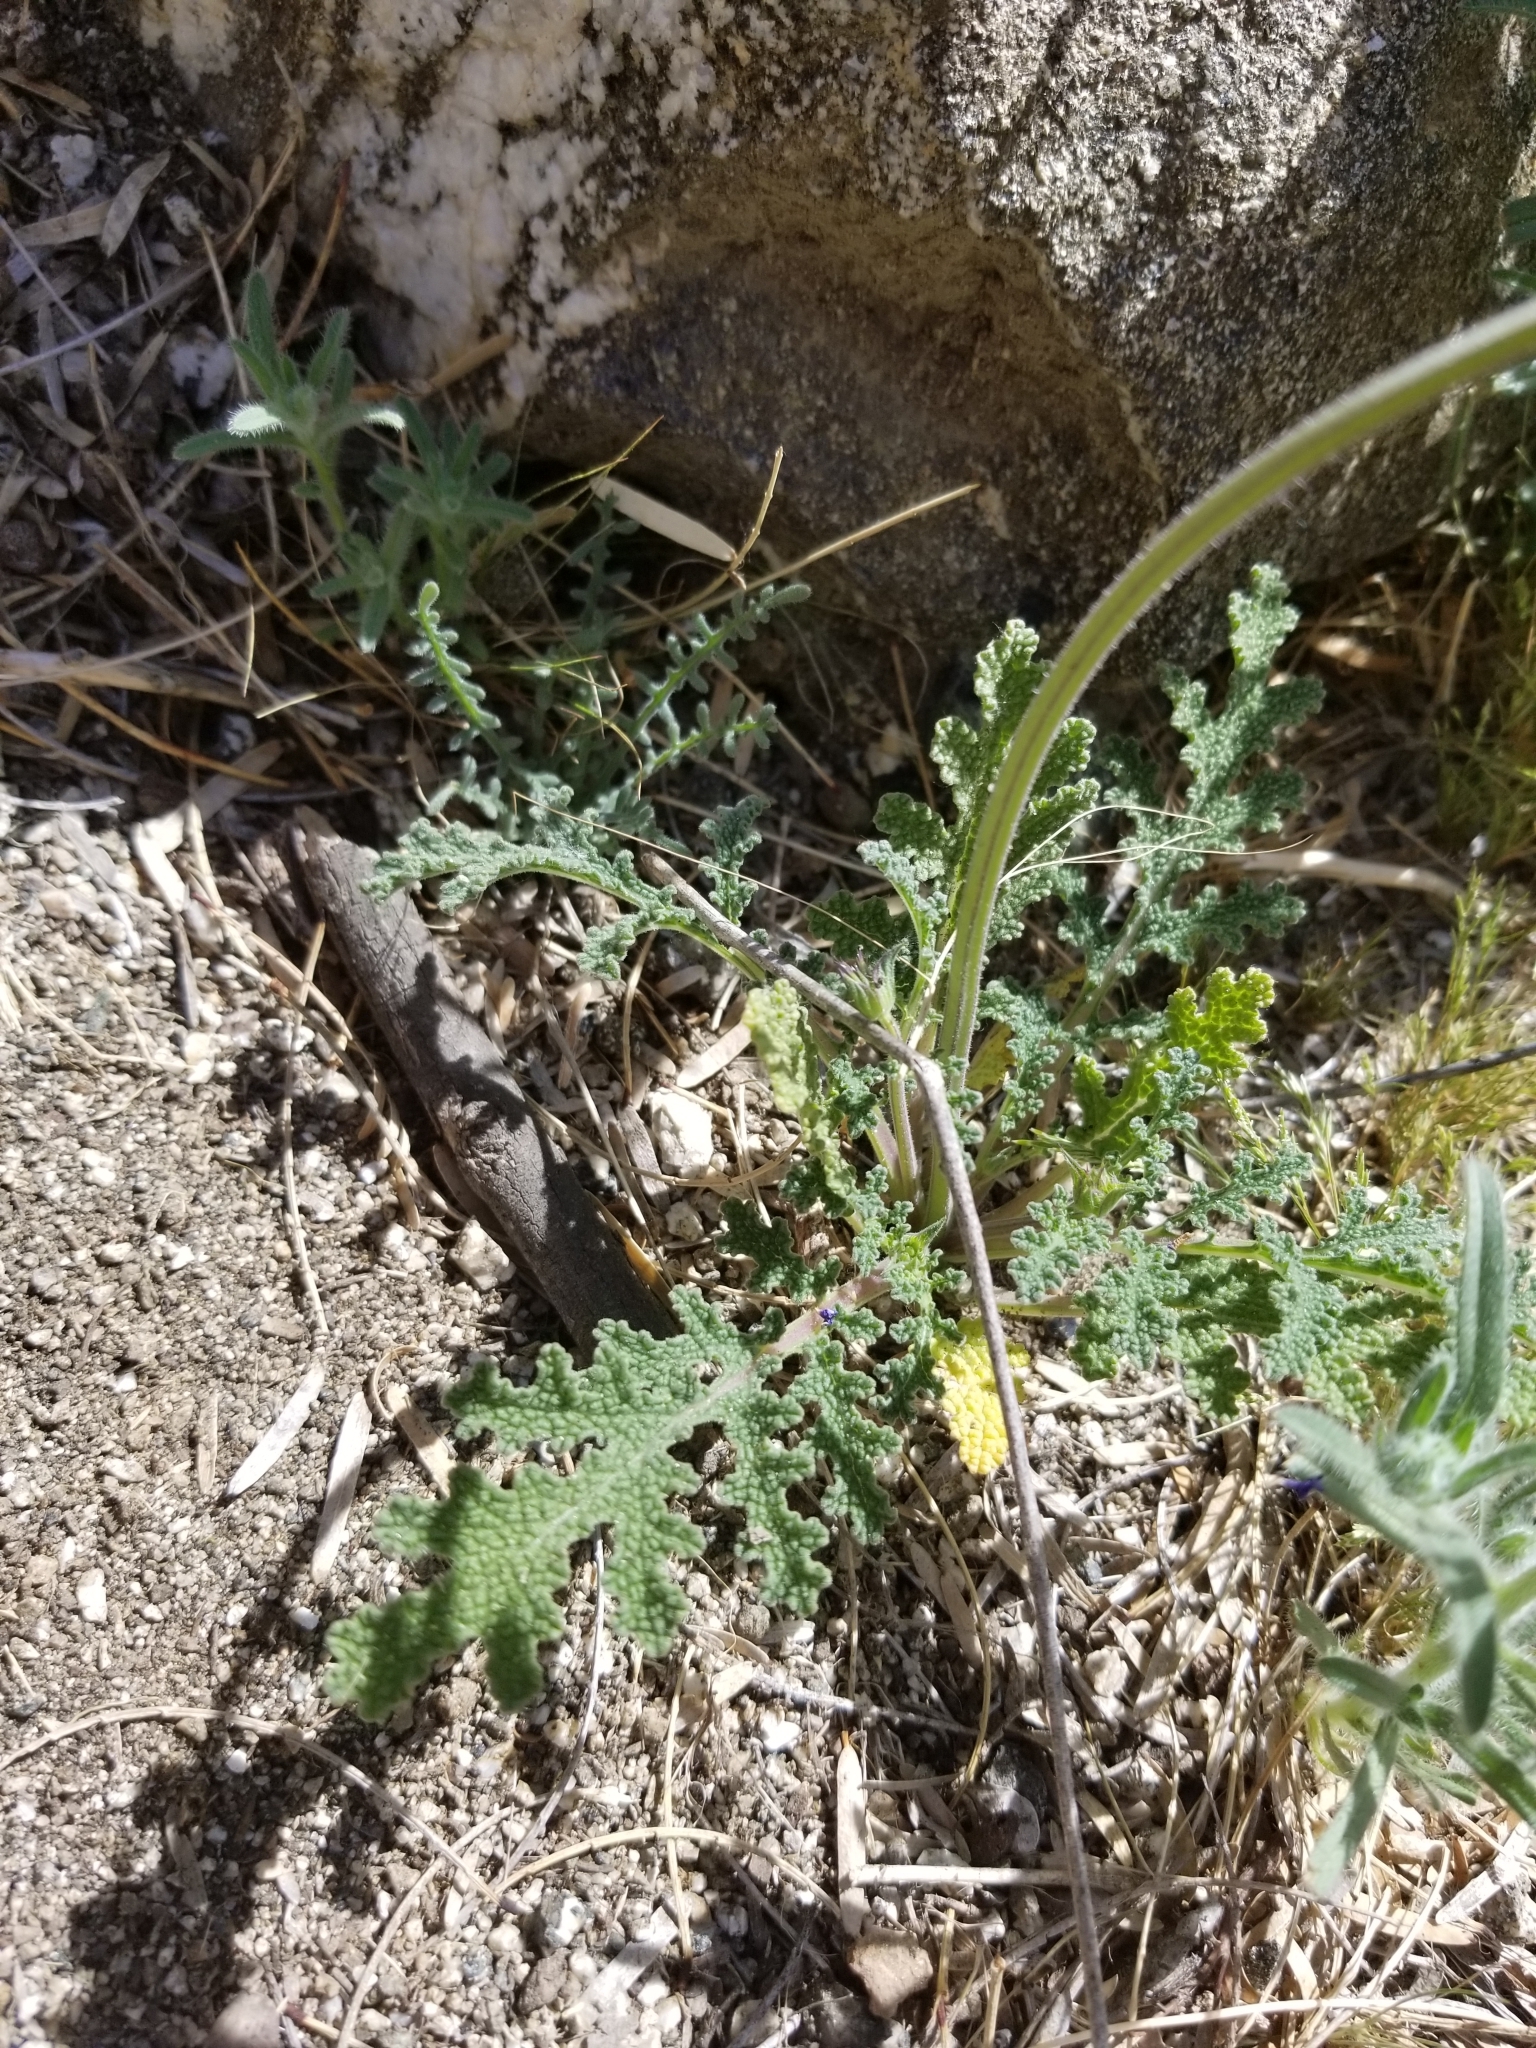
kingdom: Plantae
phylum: Tracheophyta
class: Magnoliopsida
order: Lamiales
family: Lamiaceae
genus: Salvia
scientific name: Salvia columbariae
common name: Chia
